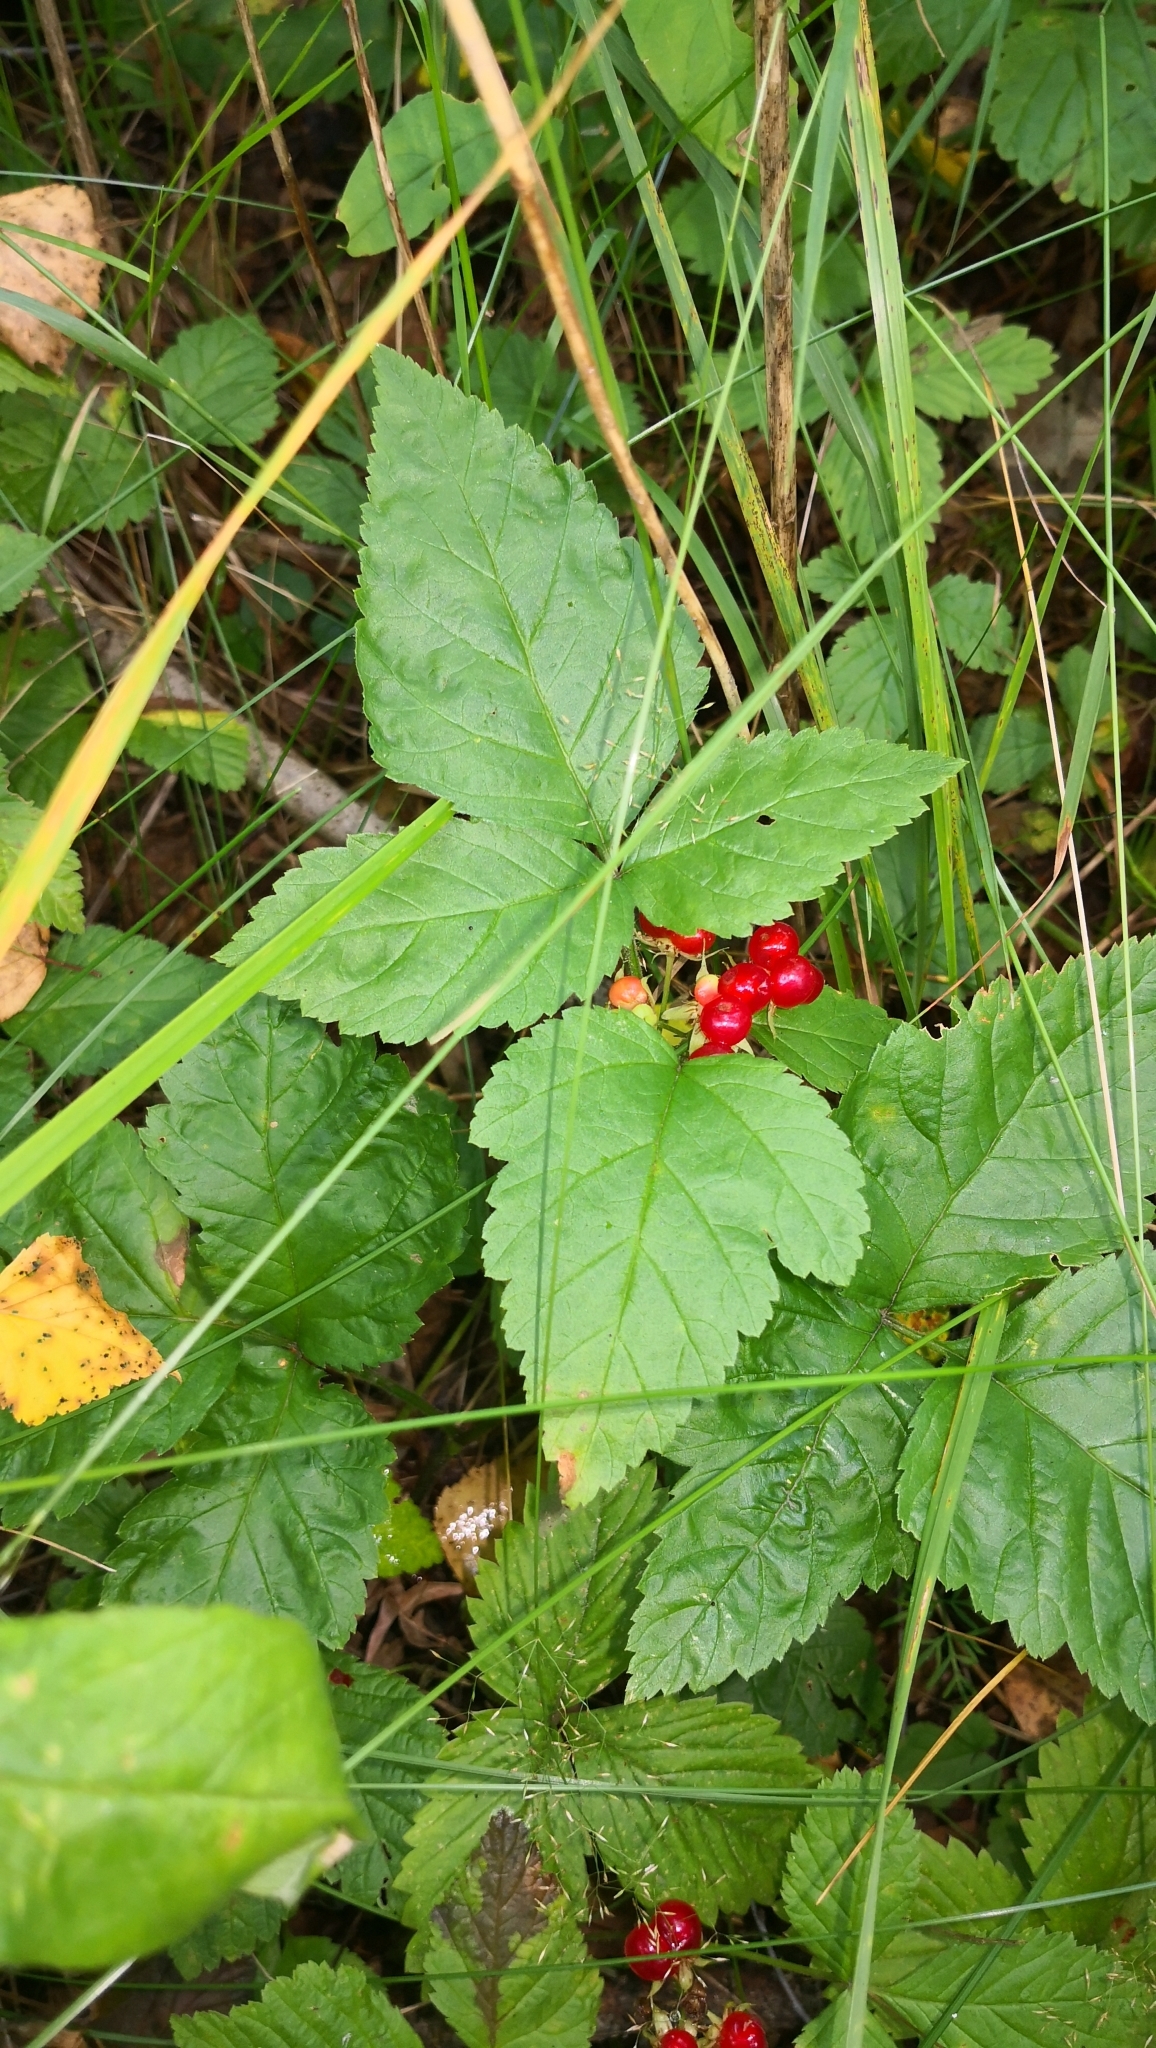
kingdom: Plantae
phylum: Tracheophyta
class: Magnoliopsida
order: Rosales
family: Rosaceae
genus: Rubus
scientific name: Rubus saxatilis
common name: Stone bramble
